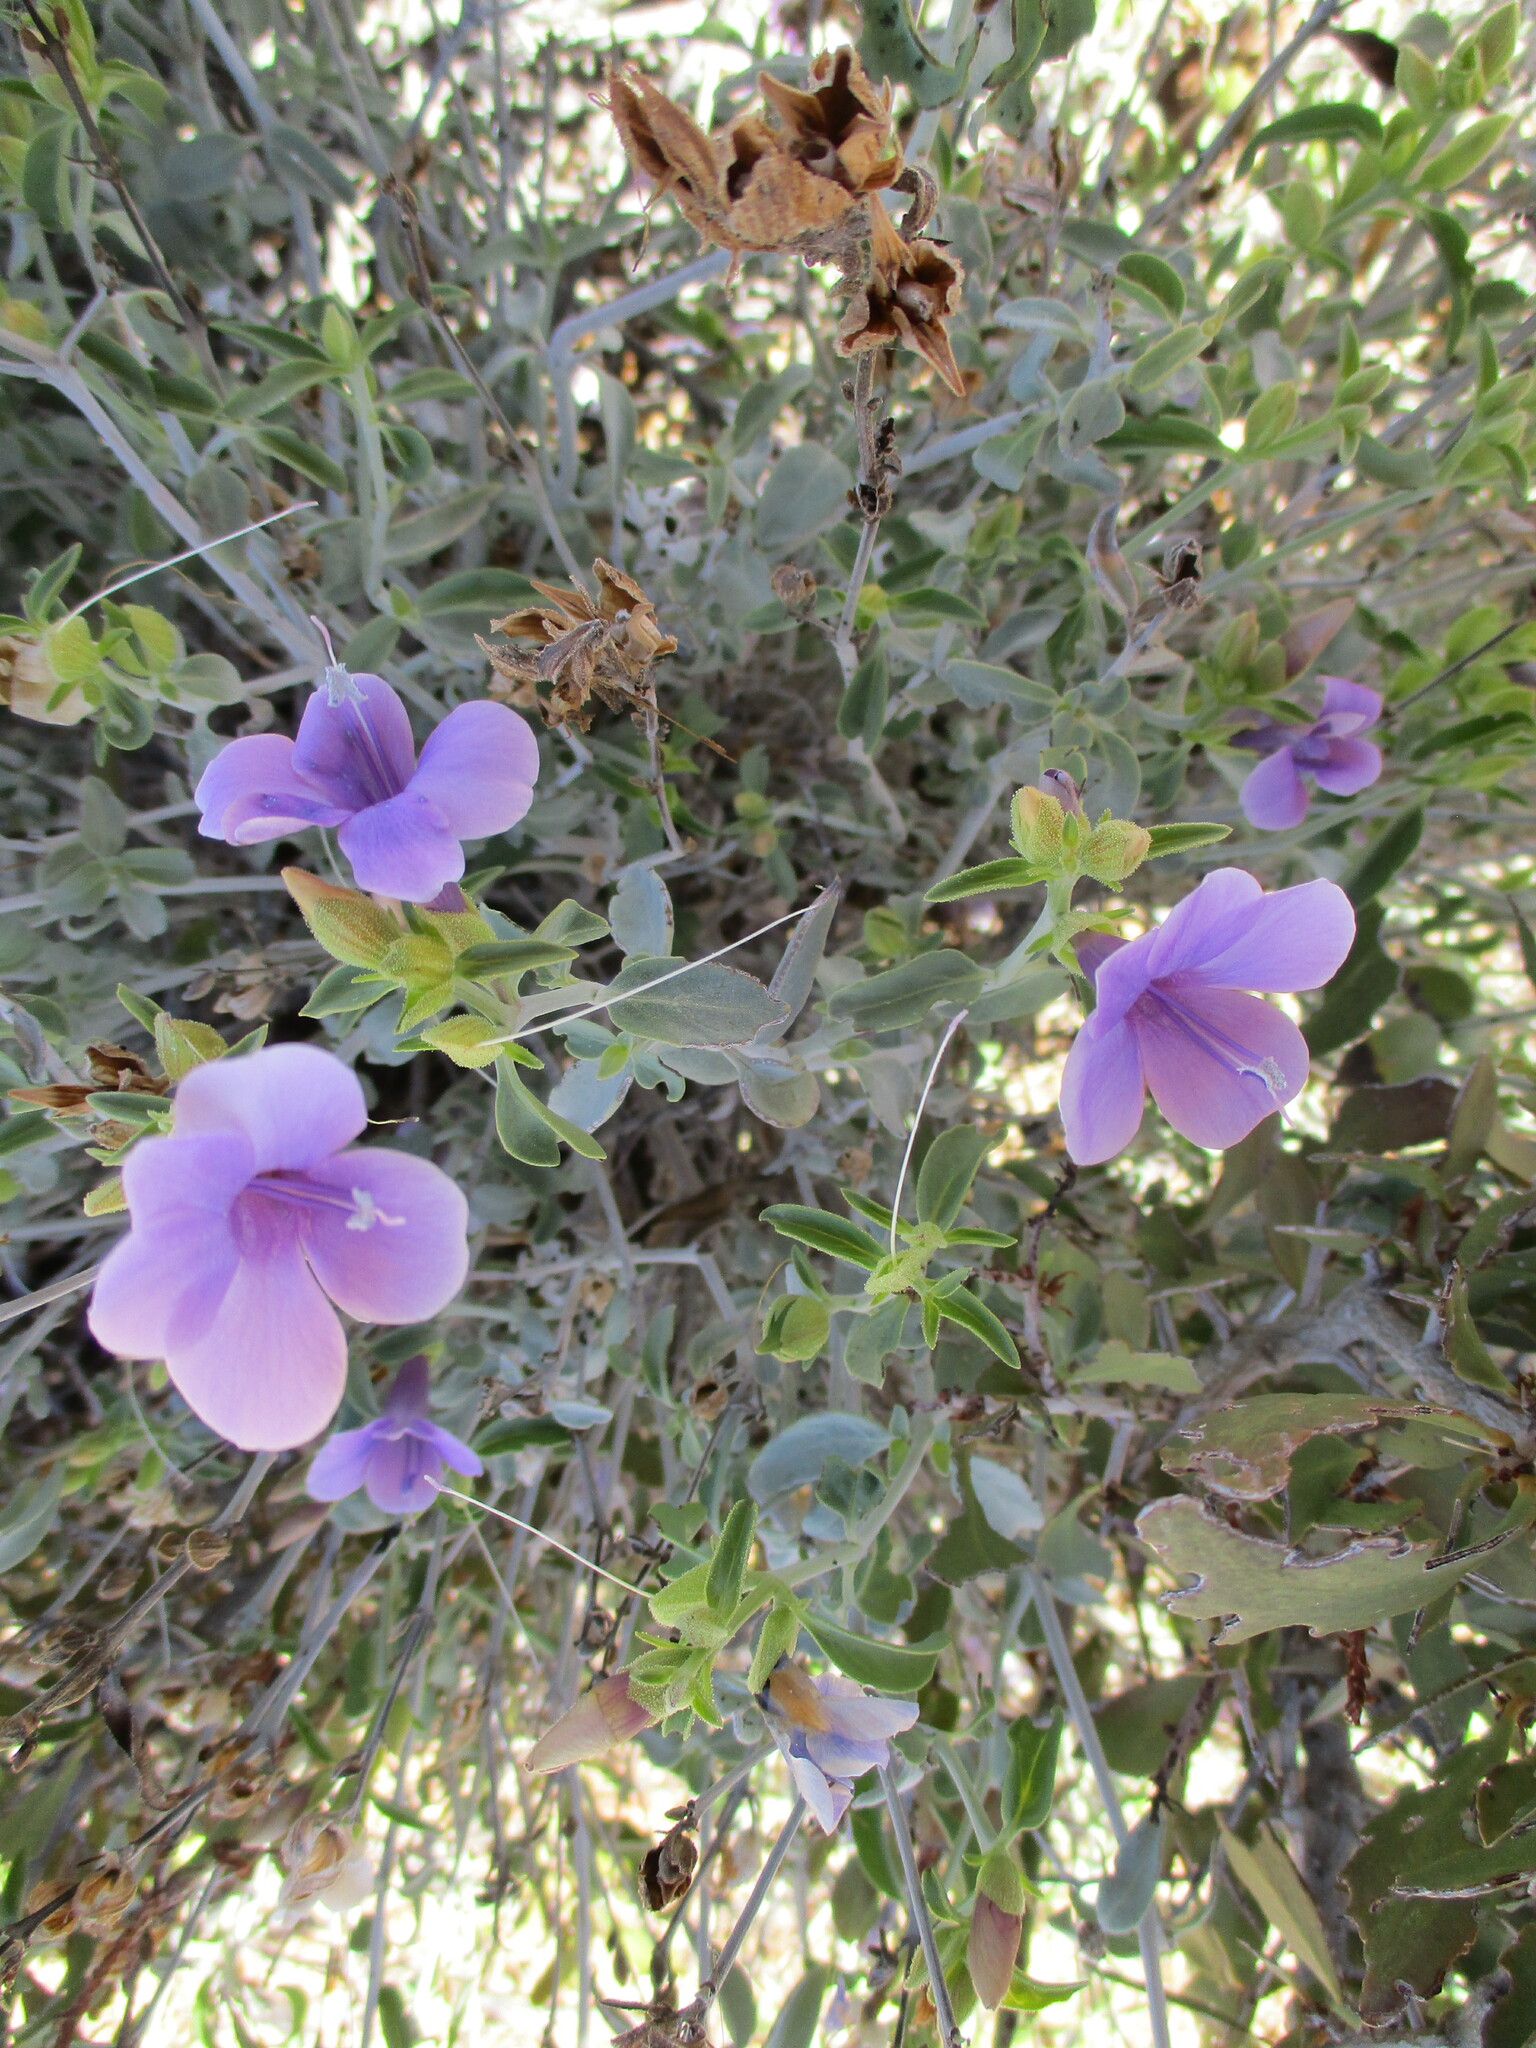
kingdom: Plantae
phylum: Tracheophyta
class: Magnoliopsida
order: Lamiales
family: Acanthaceae
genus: Barleria
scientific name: Barleria lancifolia
